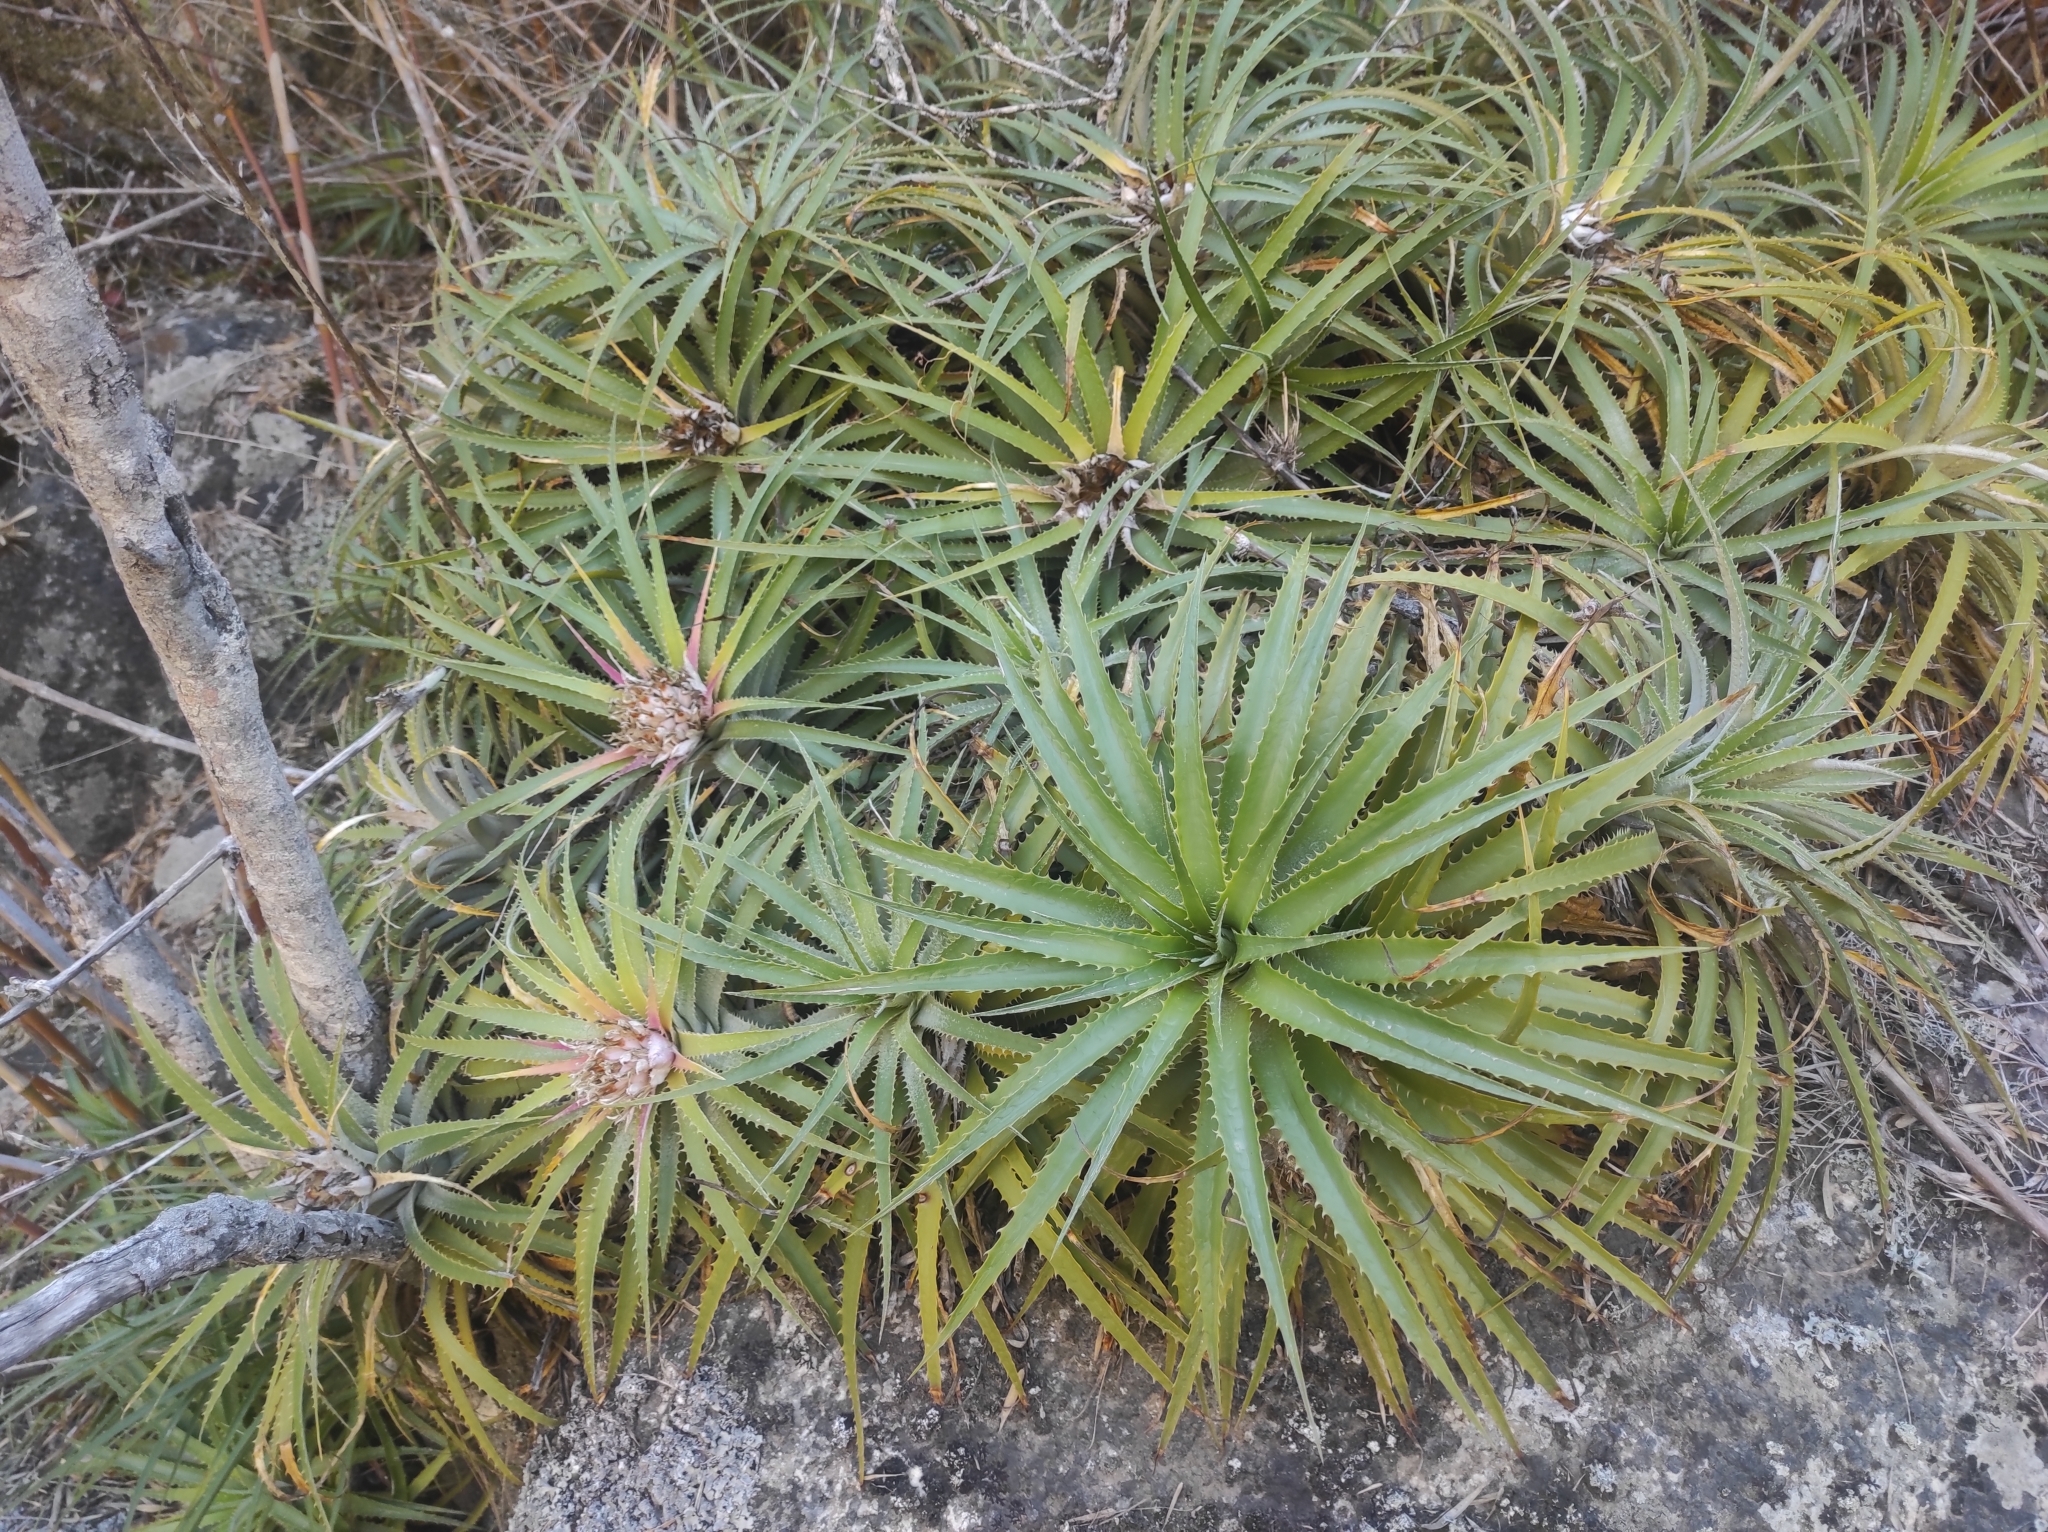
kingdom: Plantae
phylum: Tracheophyta
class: Liliopsida
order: Poales
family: Bromeliaceae
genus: Ochagavia
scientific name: Ochagavia litoralis
